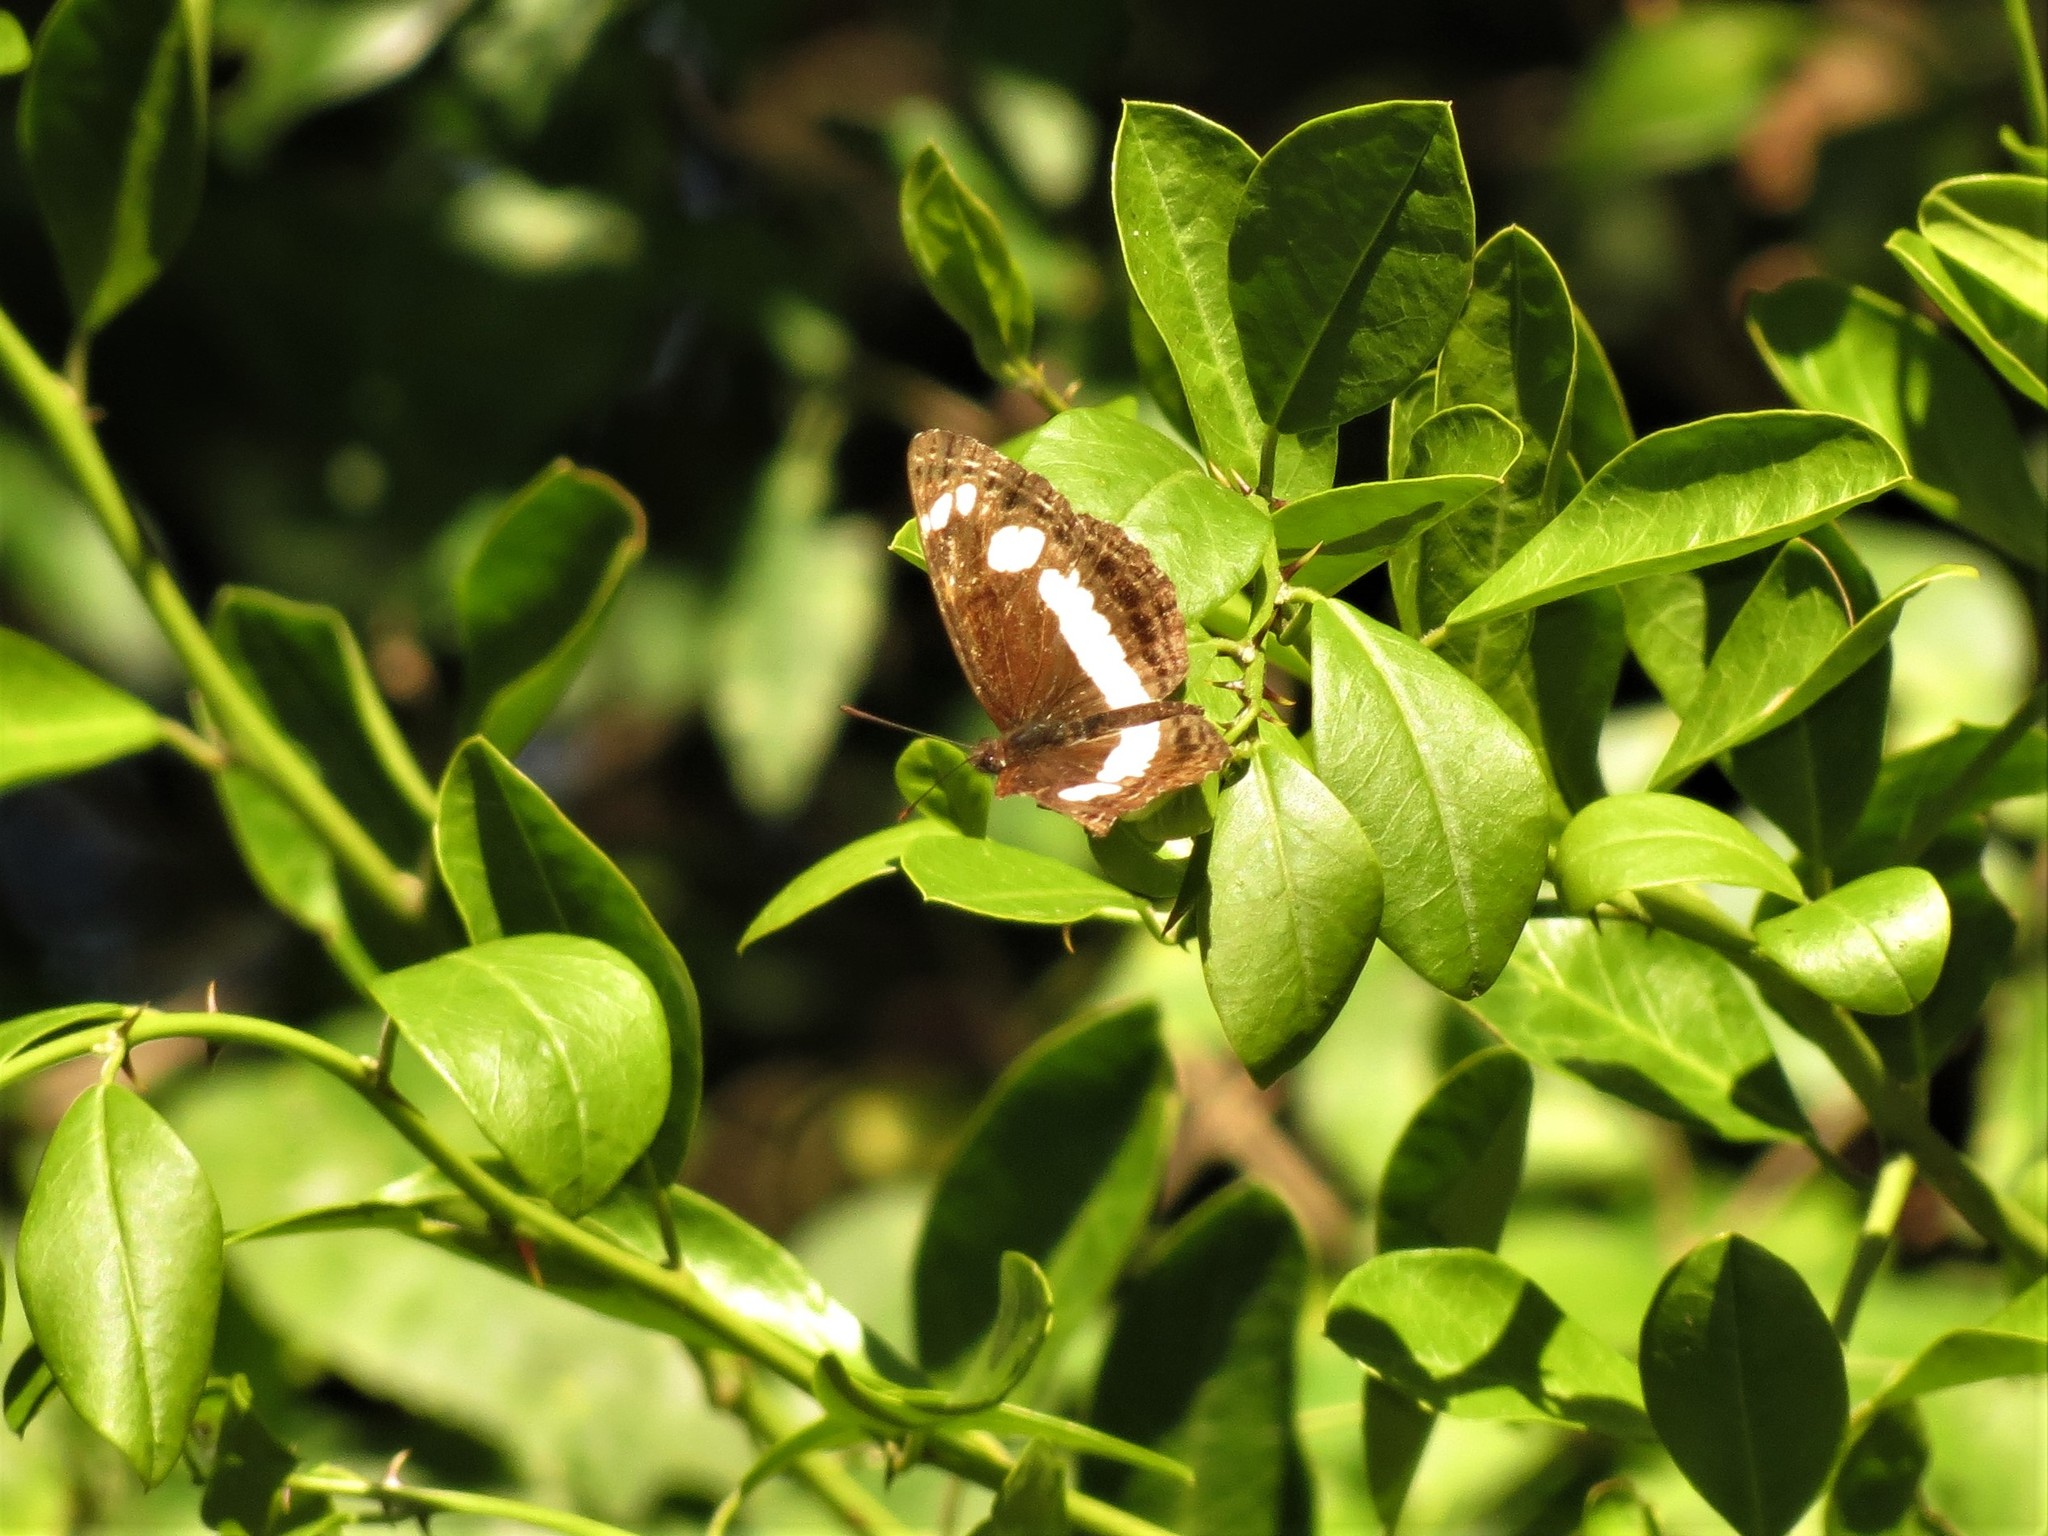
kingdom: Animalia
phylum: Arthropoda
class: Insecta
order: Lepidoptera
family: Nymphalidae
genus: Neptis
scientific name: Neptis saclava
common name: Small spotted sailor
